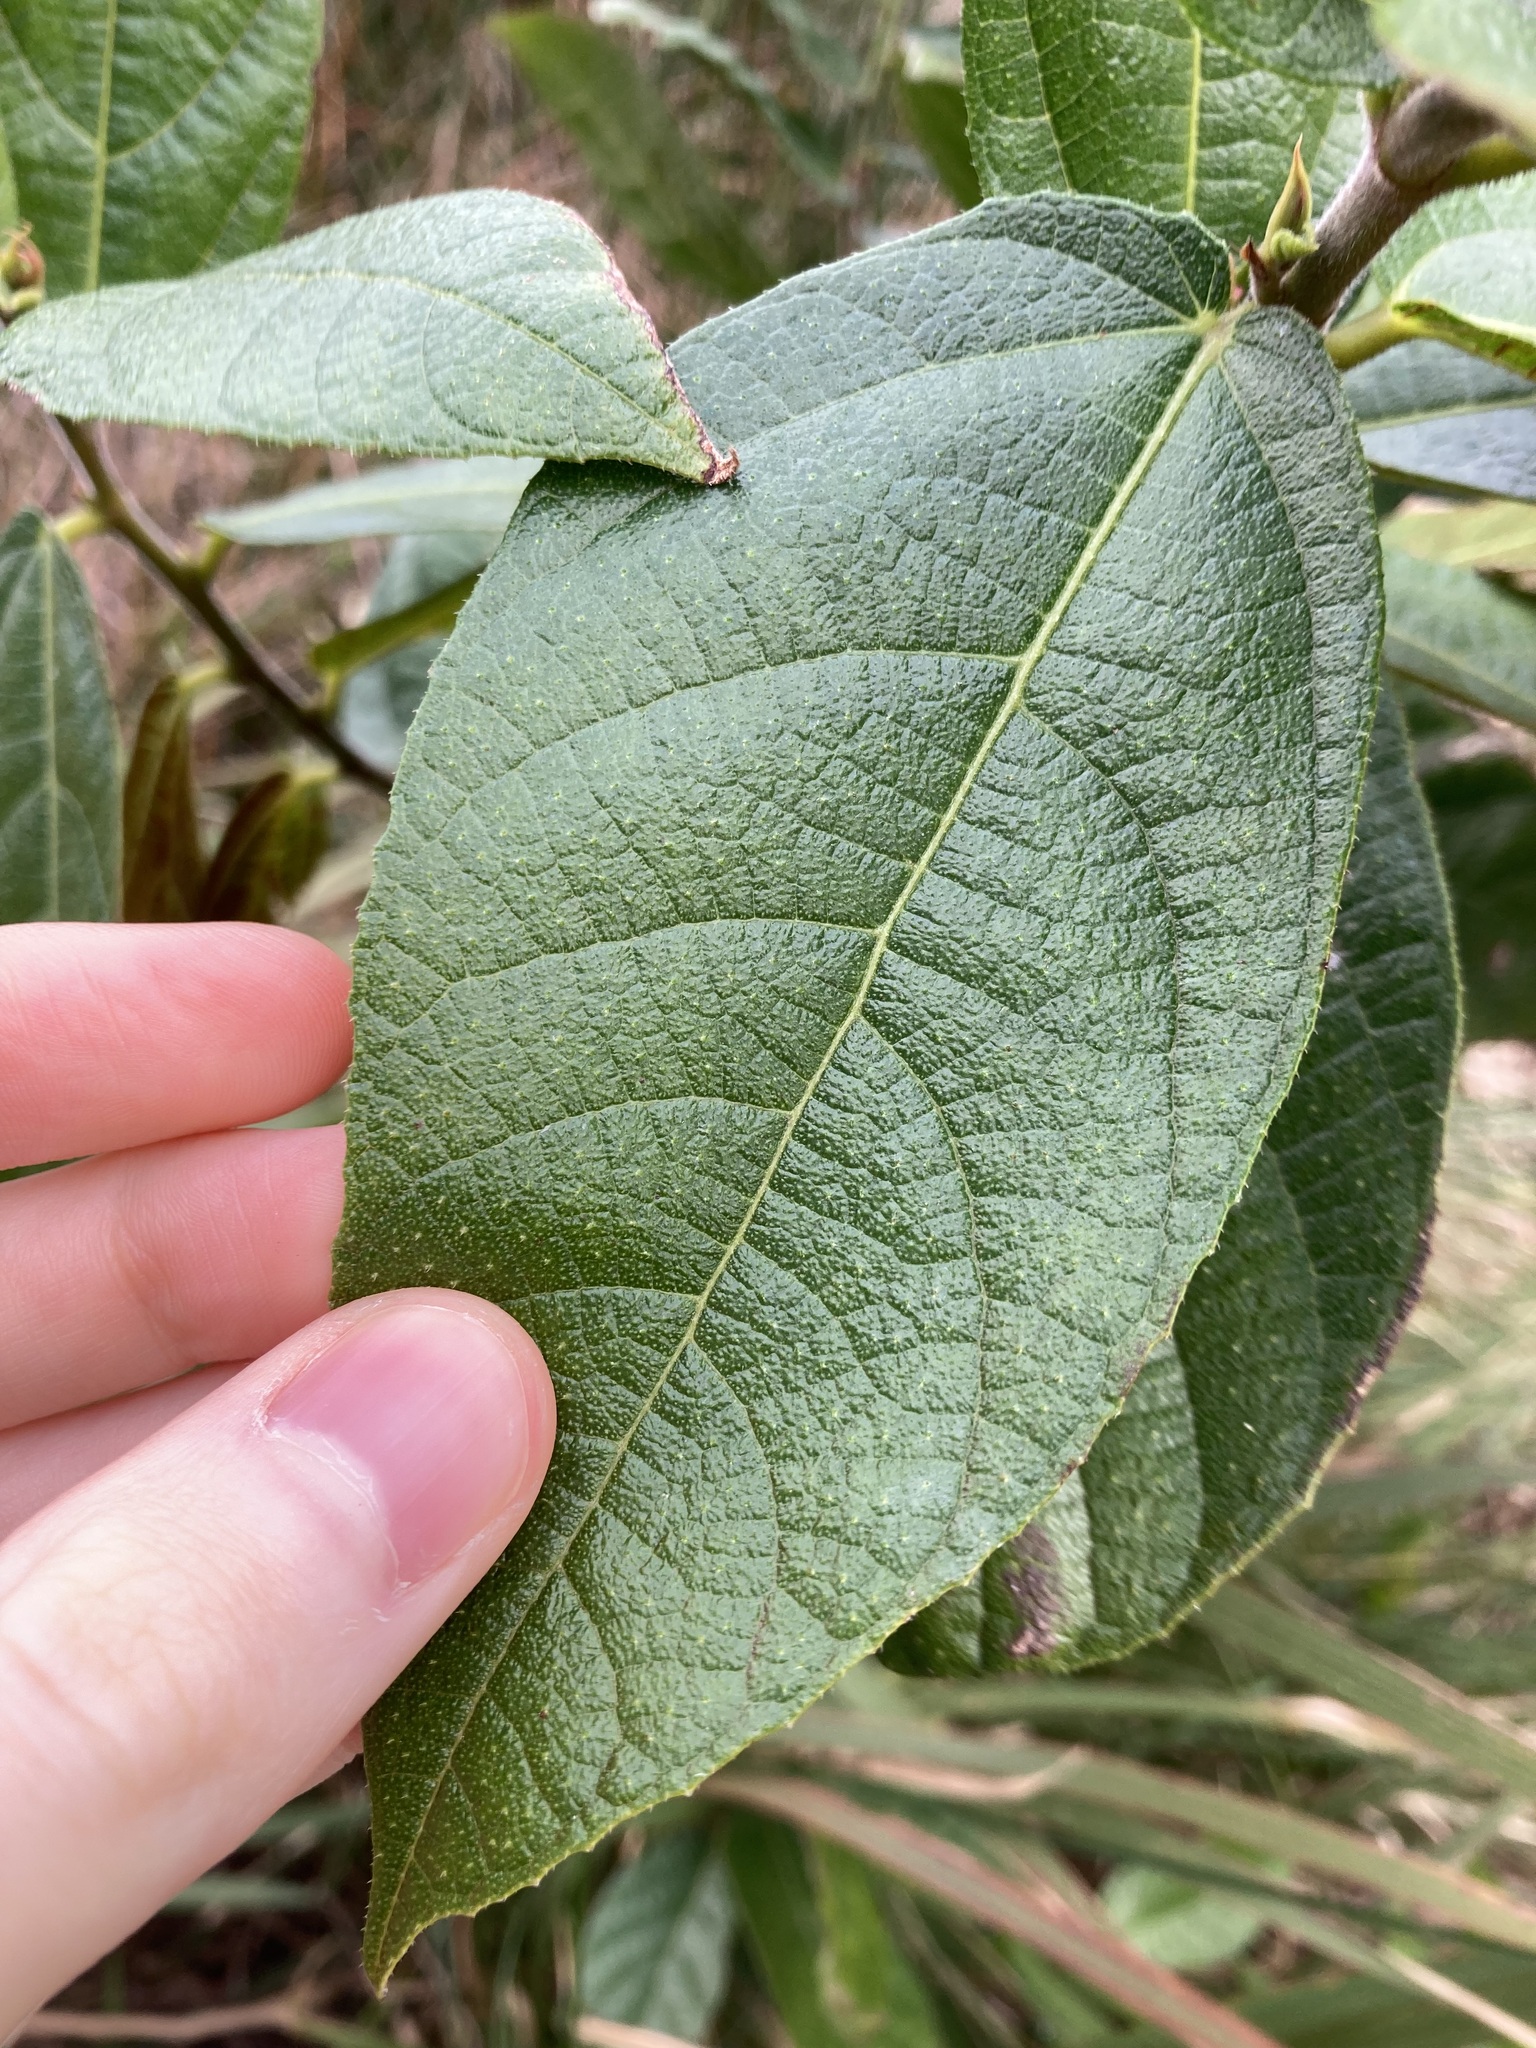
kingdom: Plantae
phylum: Tracheophyta
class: Magnoliopsida
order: Rosales
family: Moraceae
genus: Ficus
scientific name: Ficus coronata
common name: Creek sandpaper fig
